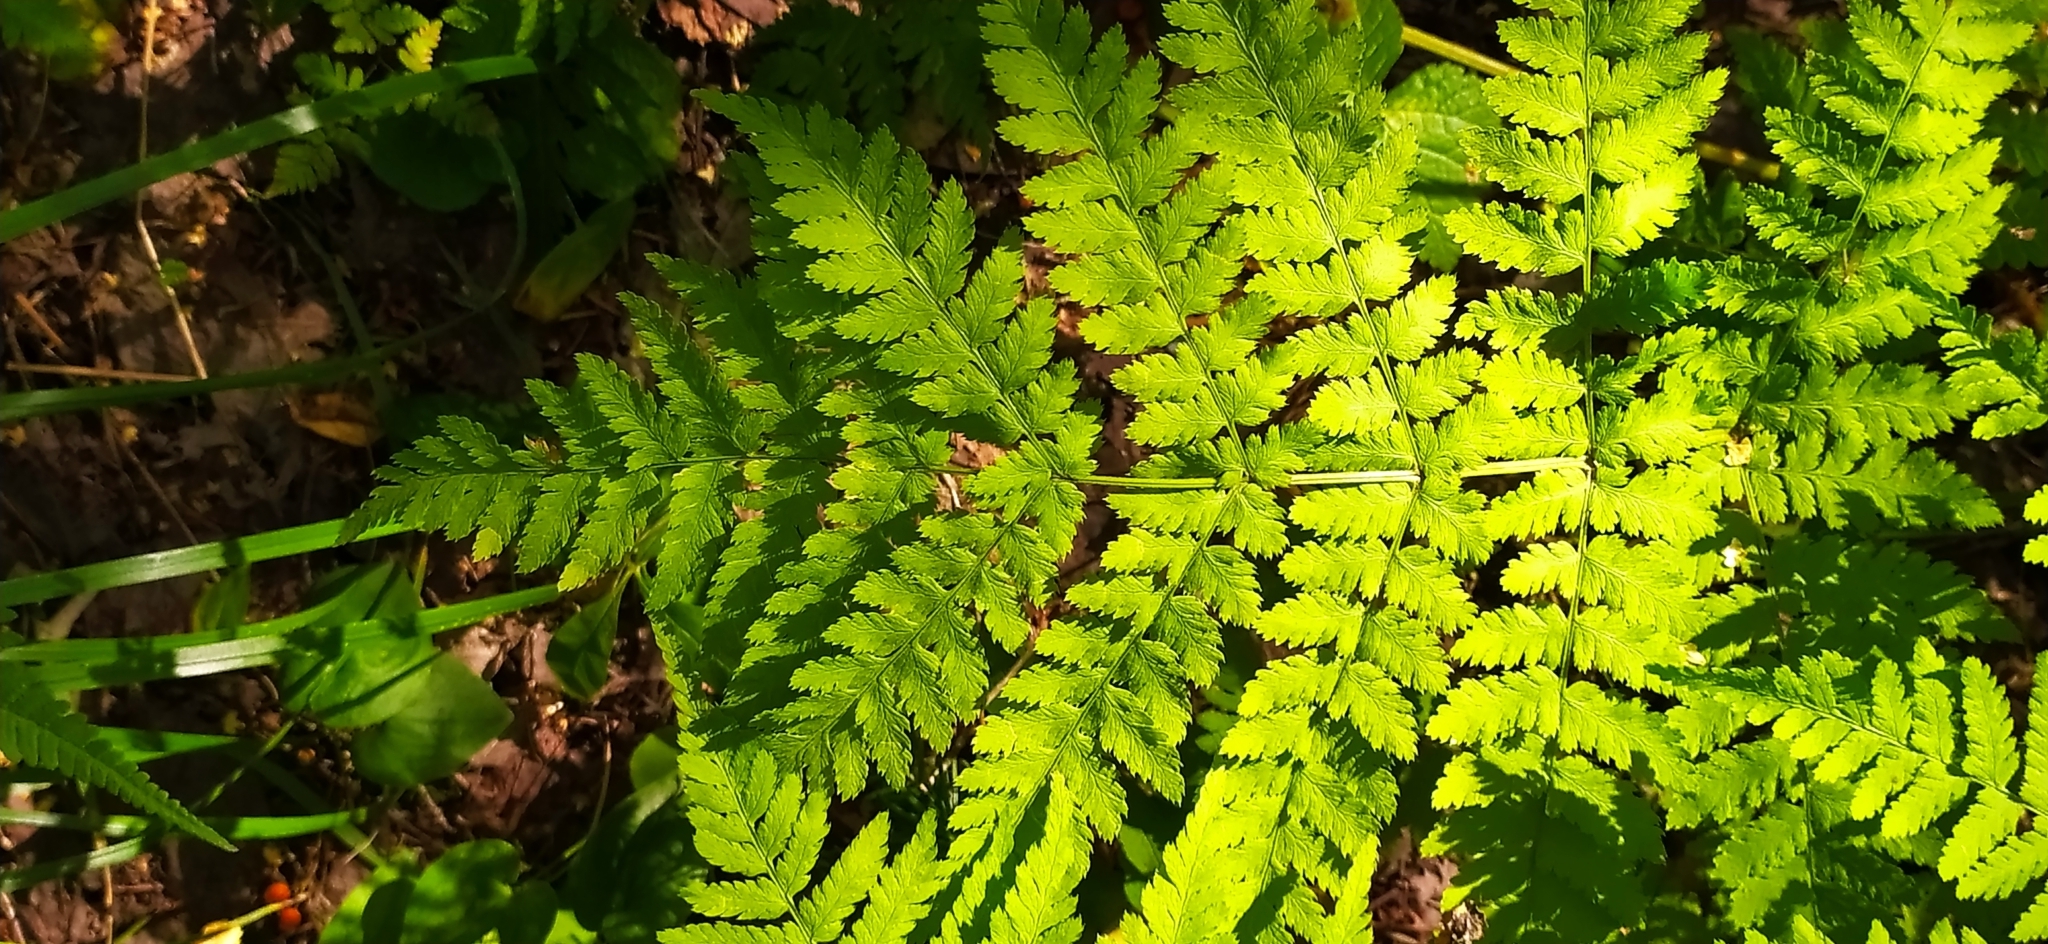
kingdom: Plantae
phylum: Tracheophyta
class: Polypodiopsida
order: Polypodiales
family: Dryopteridaceae
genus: Dryopteris
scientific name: Dryopteris carthusiana
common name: Narrow buckler-fern
